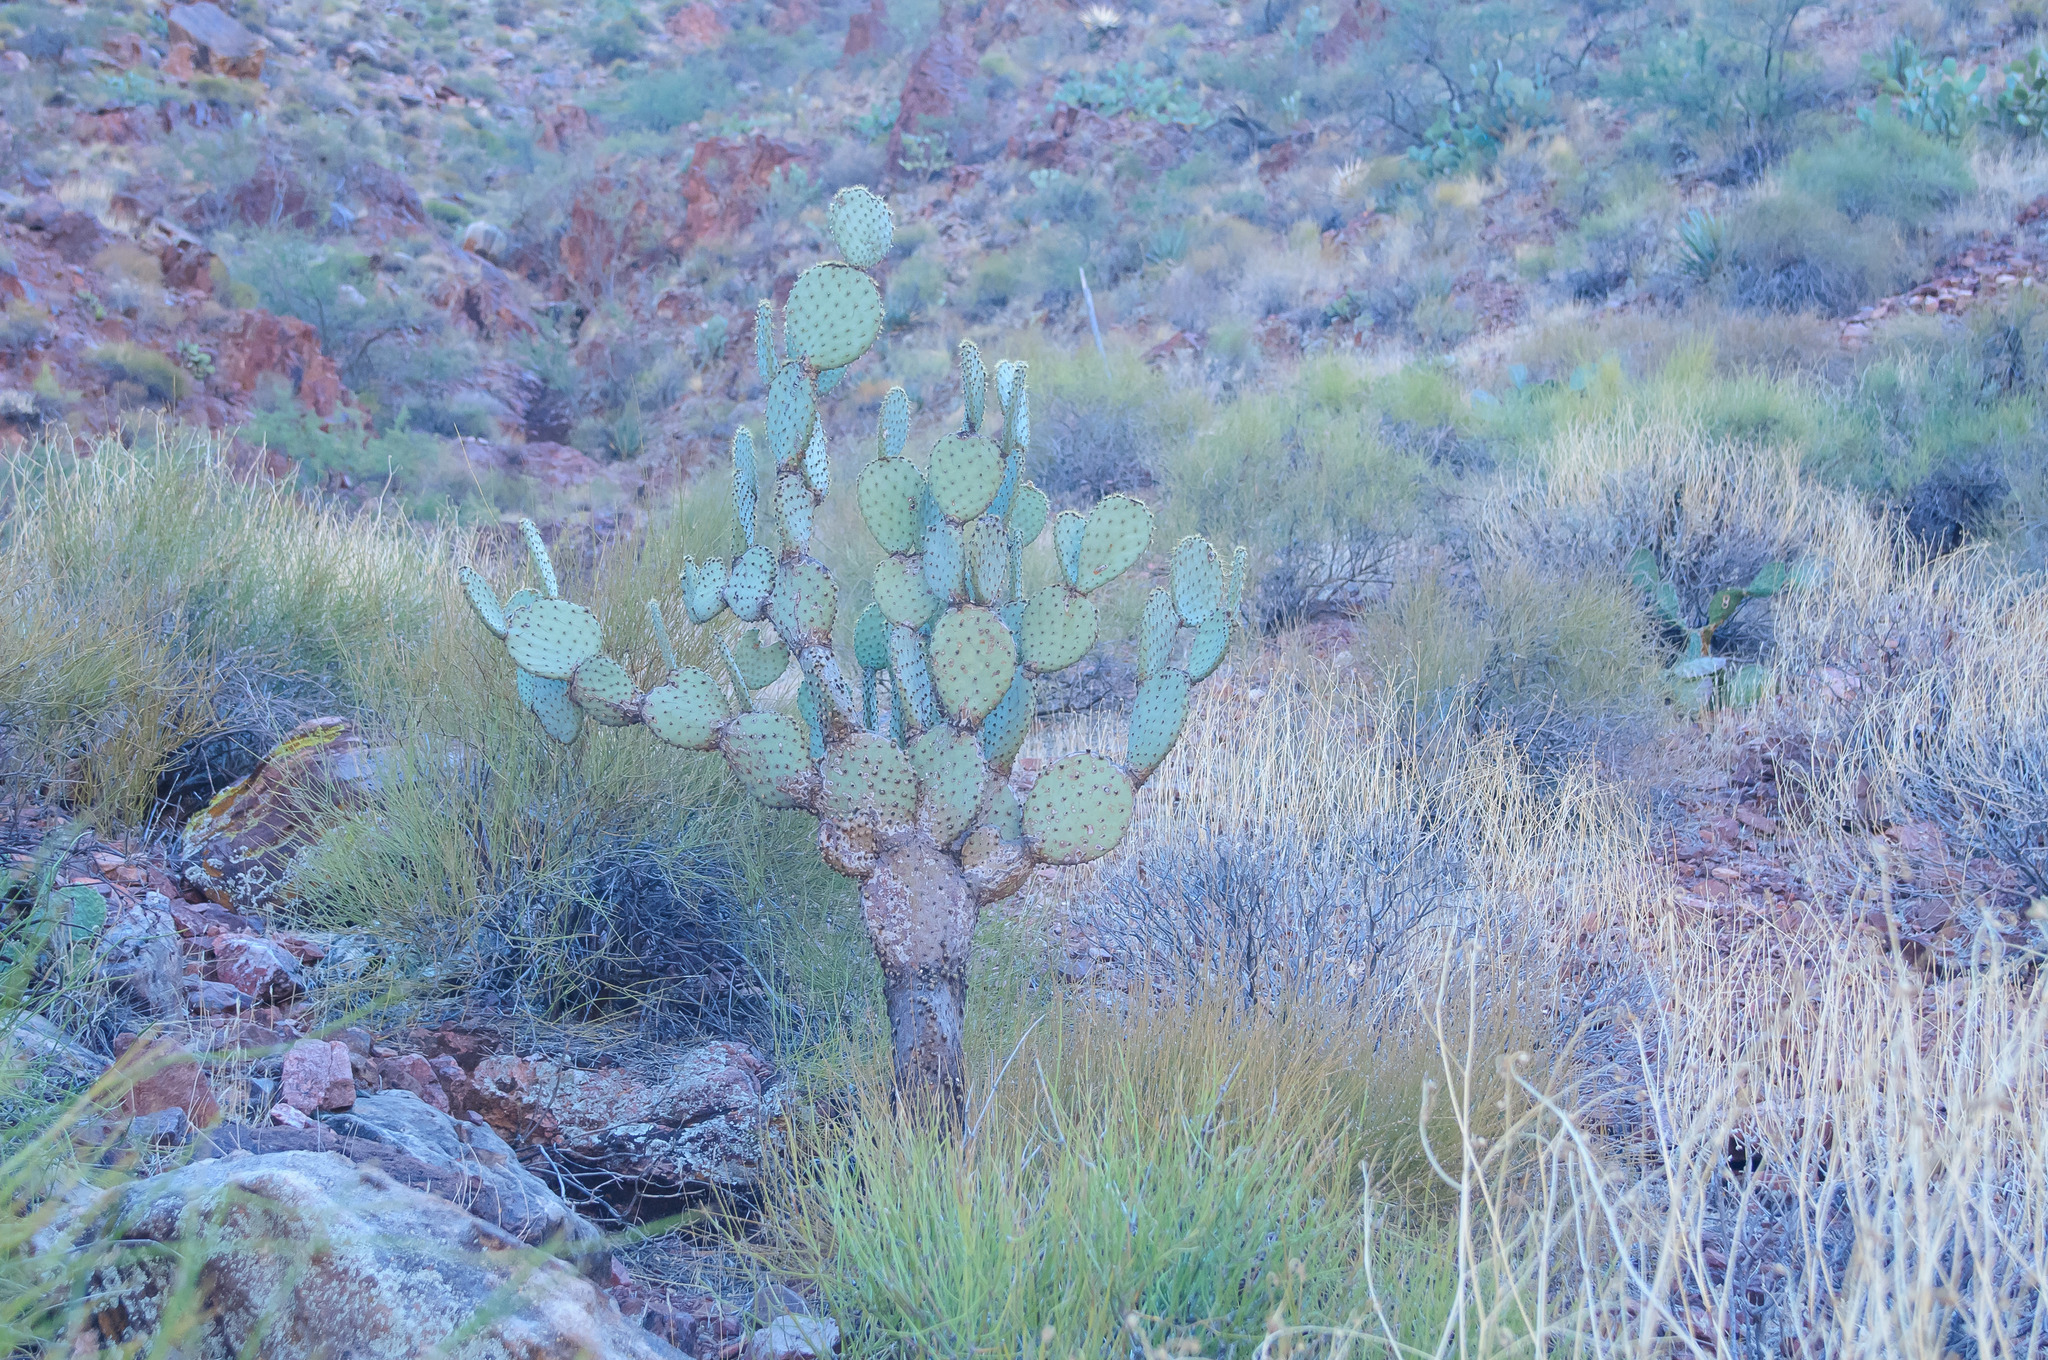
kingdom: Plantae
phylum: Tracheophyta
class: Magnoliopsida
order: Caryophyllales
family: Cactaceae
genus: Opuntia
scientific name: Opuntia chlorotica
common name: Dollar-joint prickly-pear
